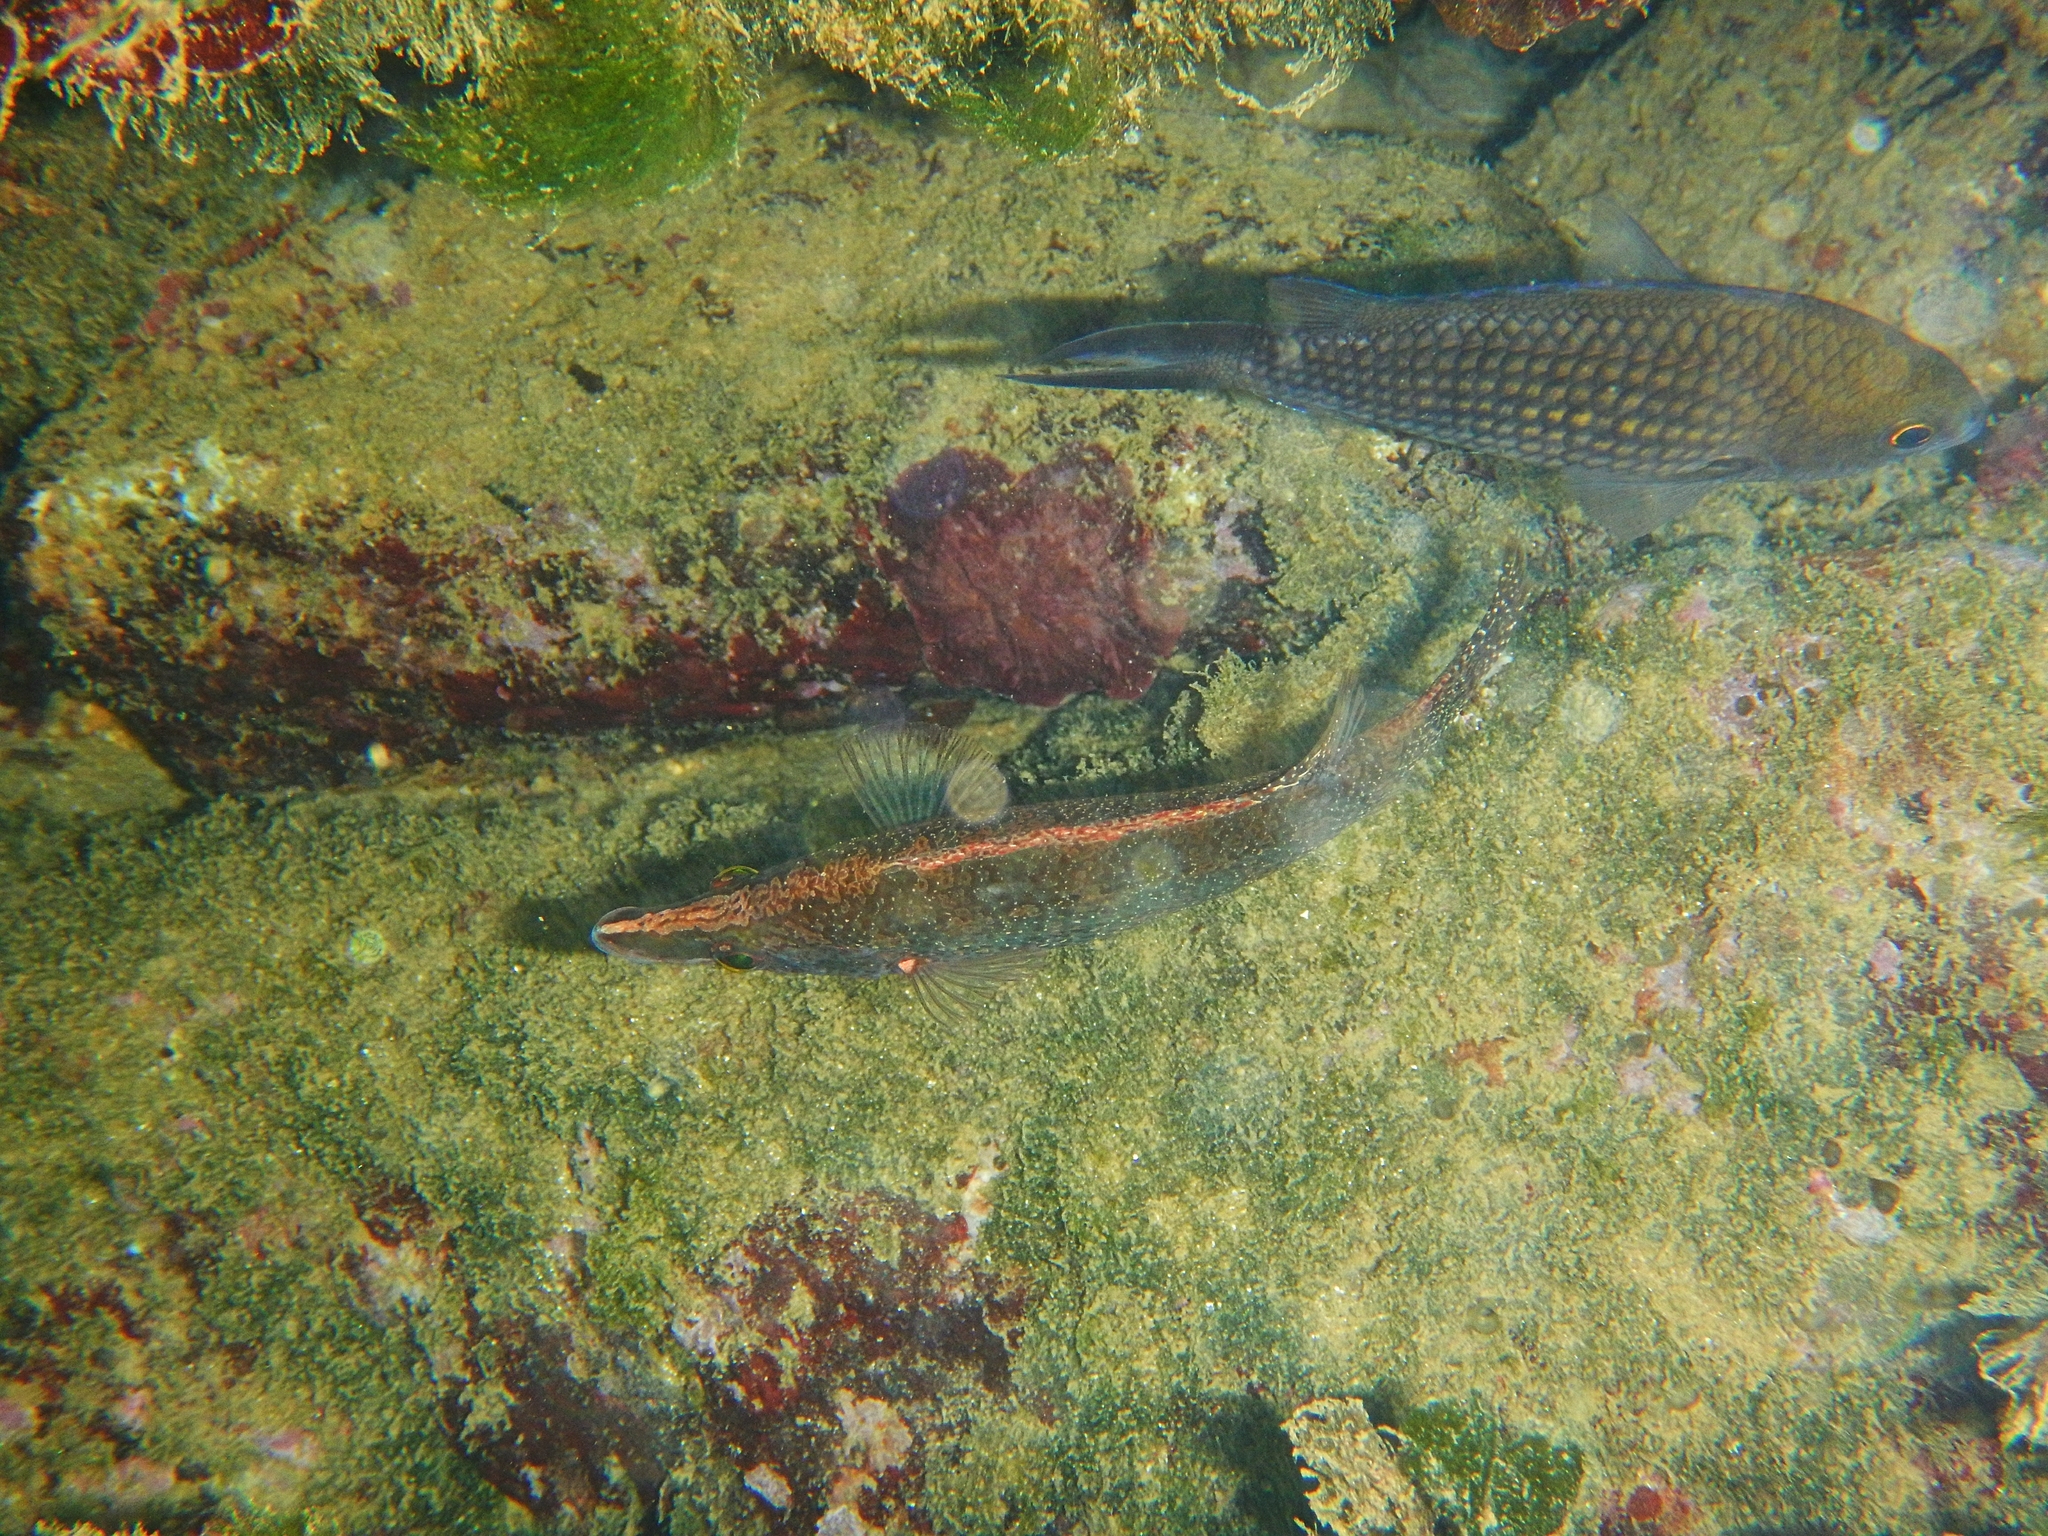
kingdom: Animalia
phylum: Chordata
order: Perciformes
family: Labridae
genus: Symphodus
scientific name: Symphodus rostratus
